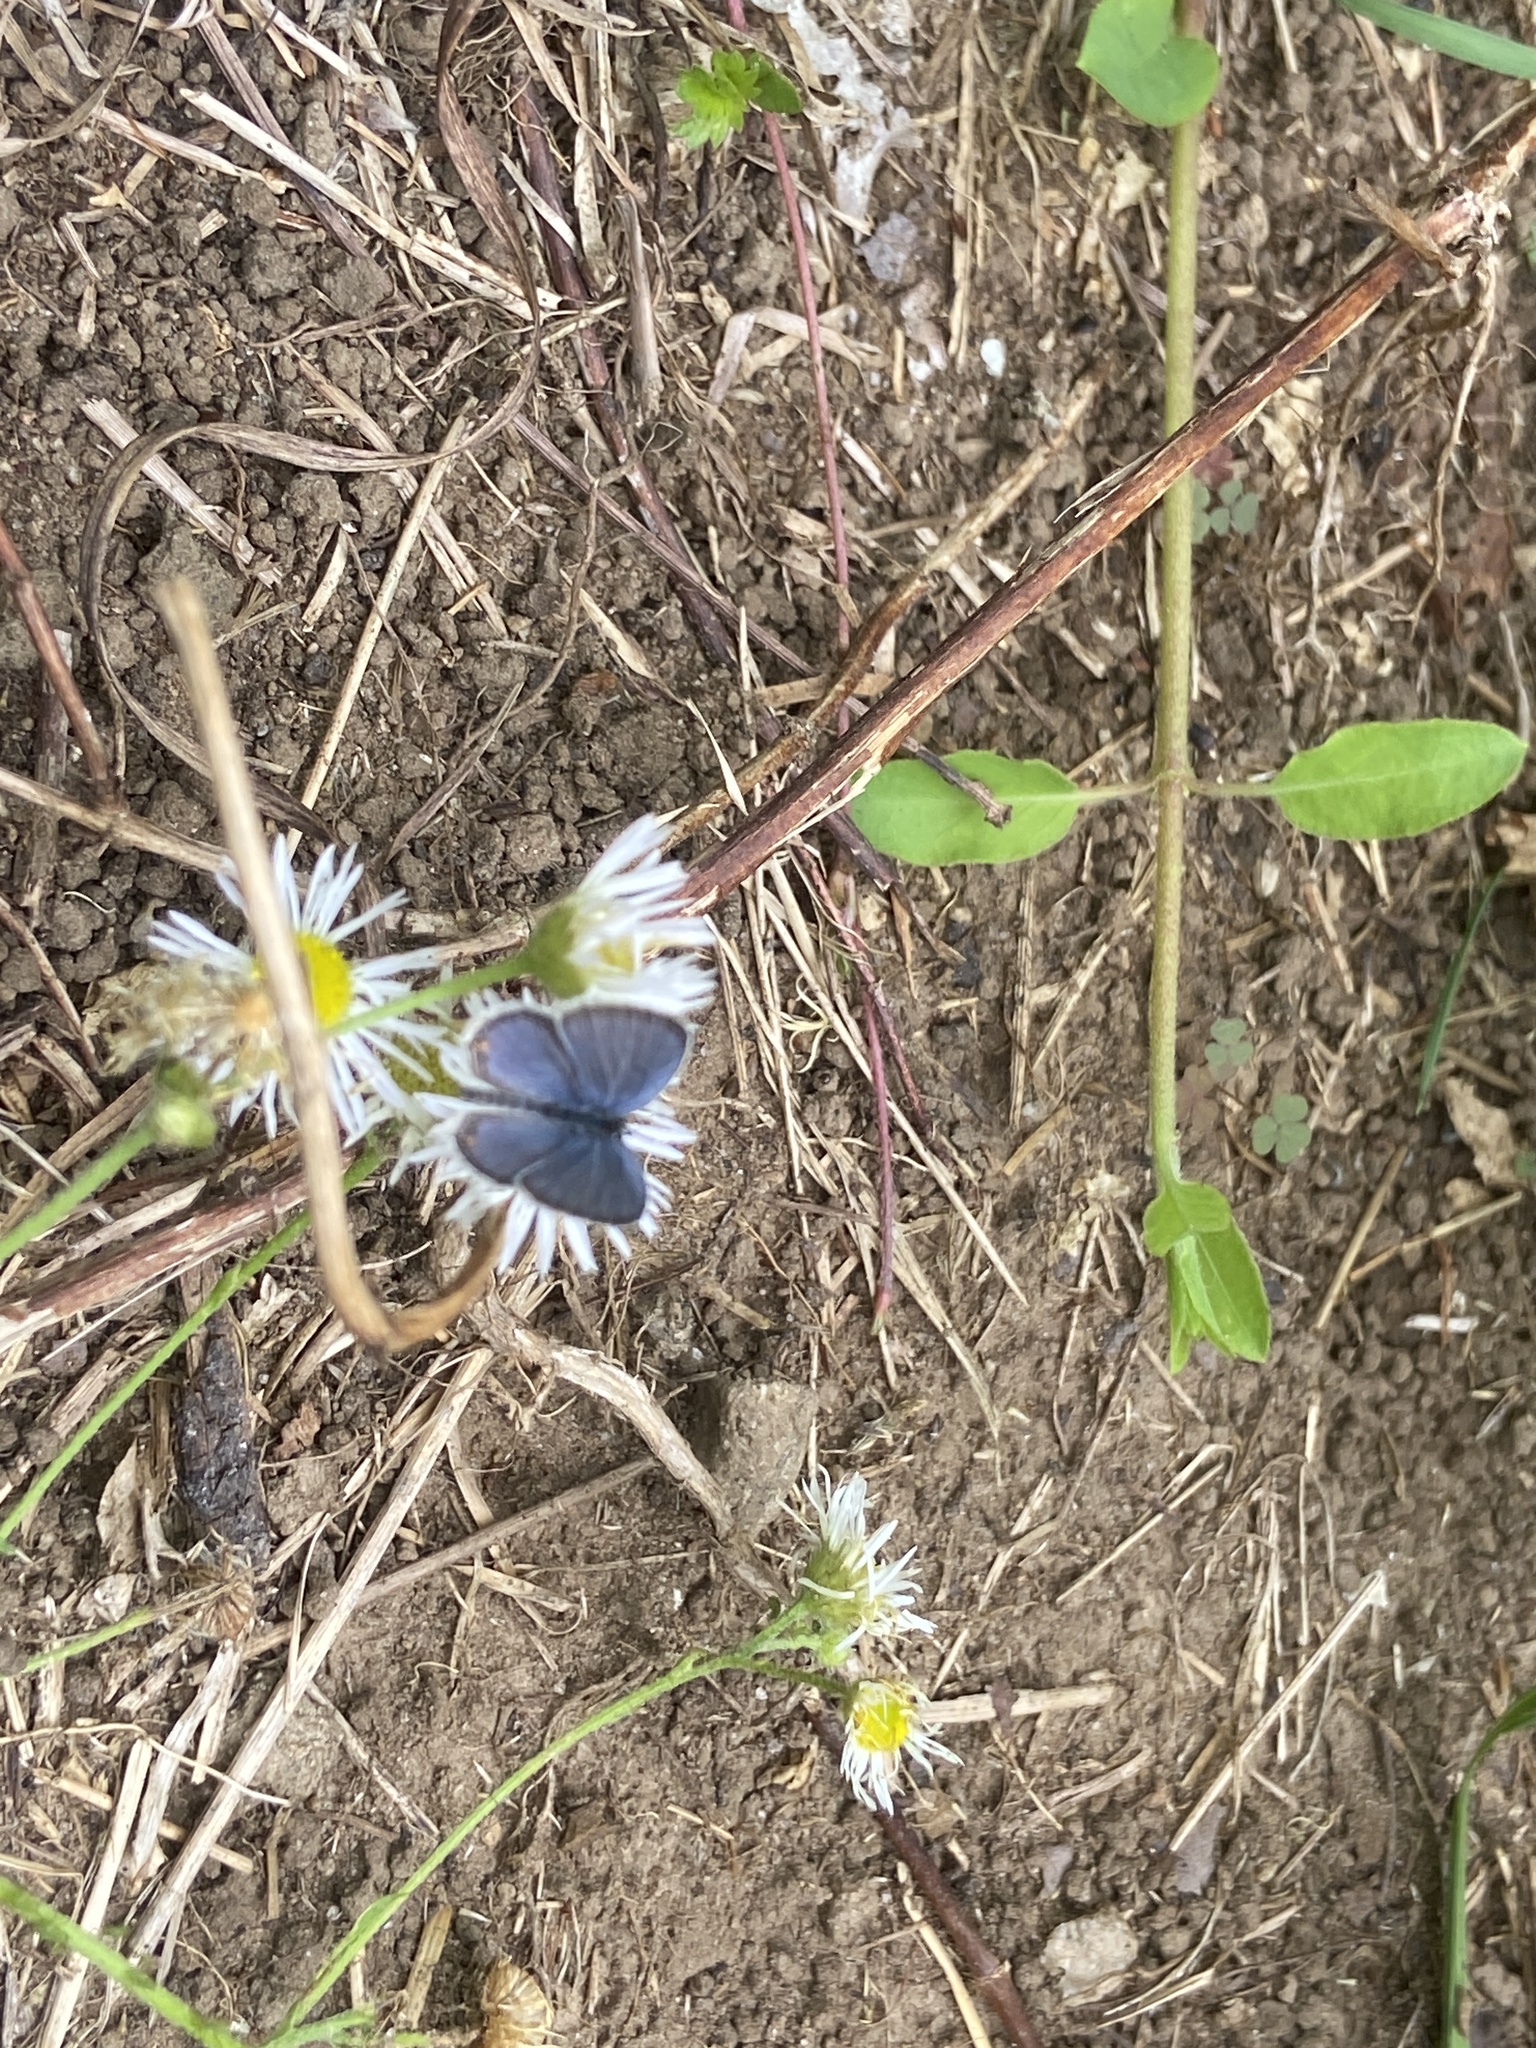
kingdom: Animalia
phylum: Arthropoda
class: Insecta
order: Lepidoptera
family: Lycaenidae
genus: Elkalyce
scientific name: Elkalyce comyntas
